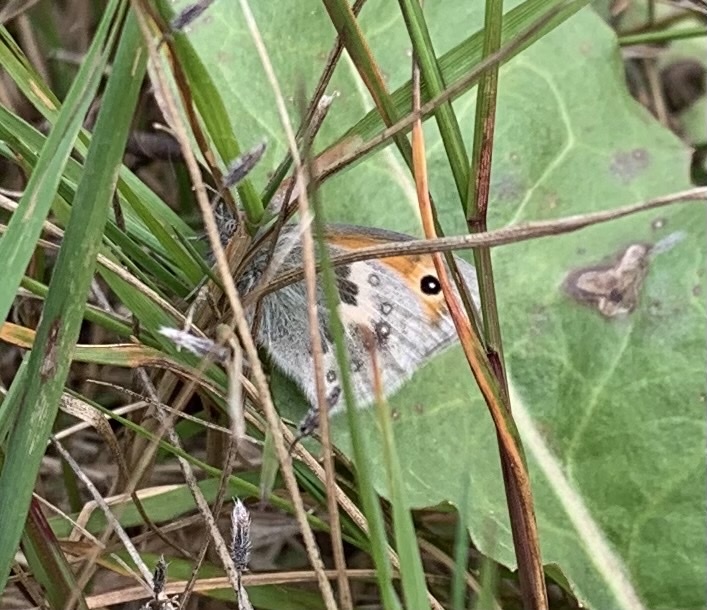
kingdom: Animalia
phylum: Arthropoda
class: Insecta
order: Lepidoptera
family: Nymphalidae
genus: Coenonympha
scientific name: Coenonympha pamphilus
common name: Small heath
